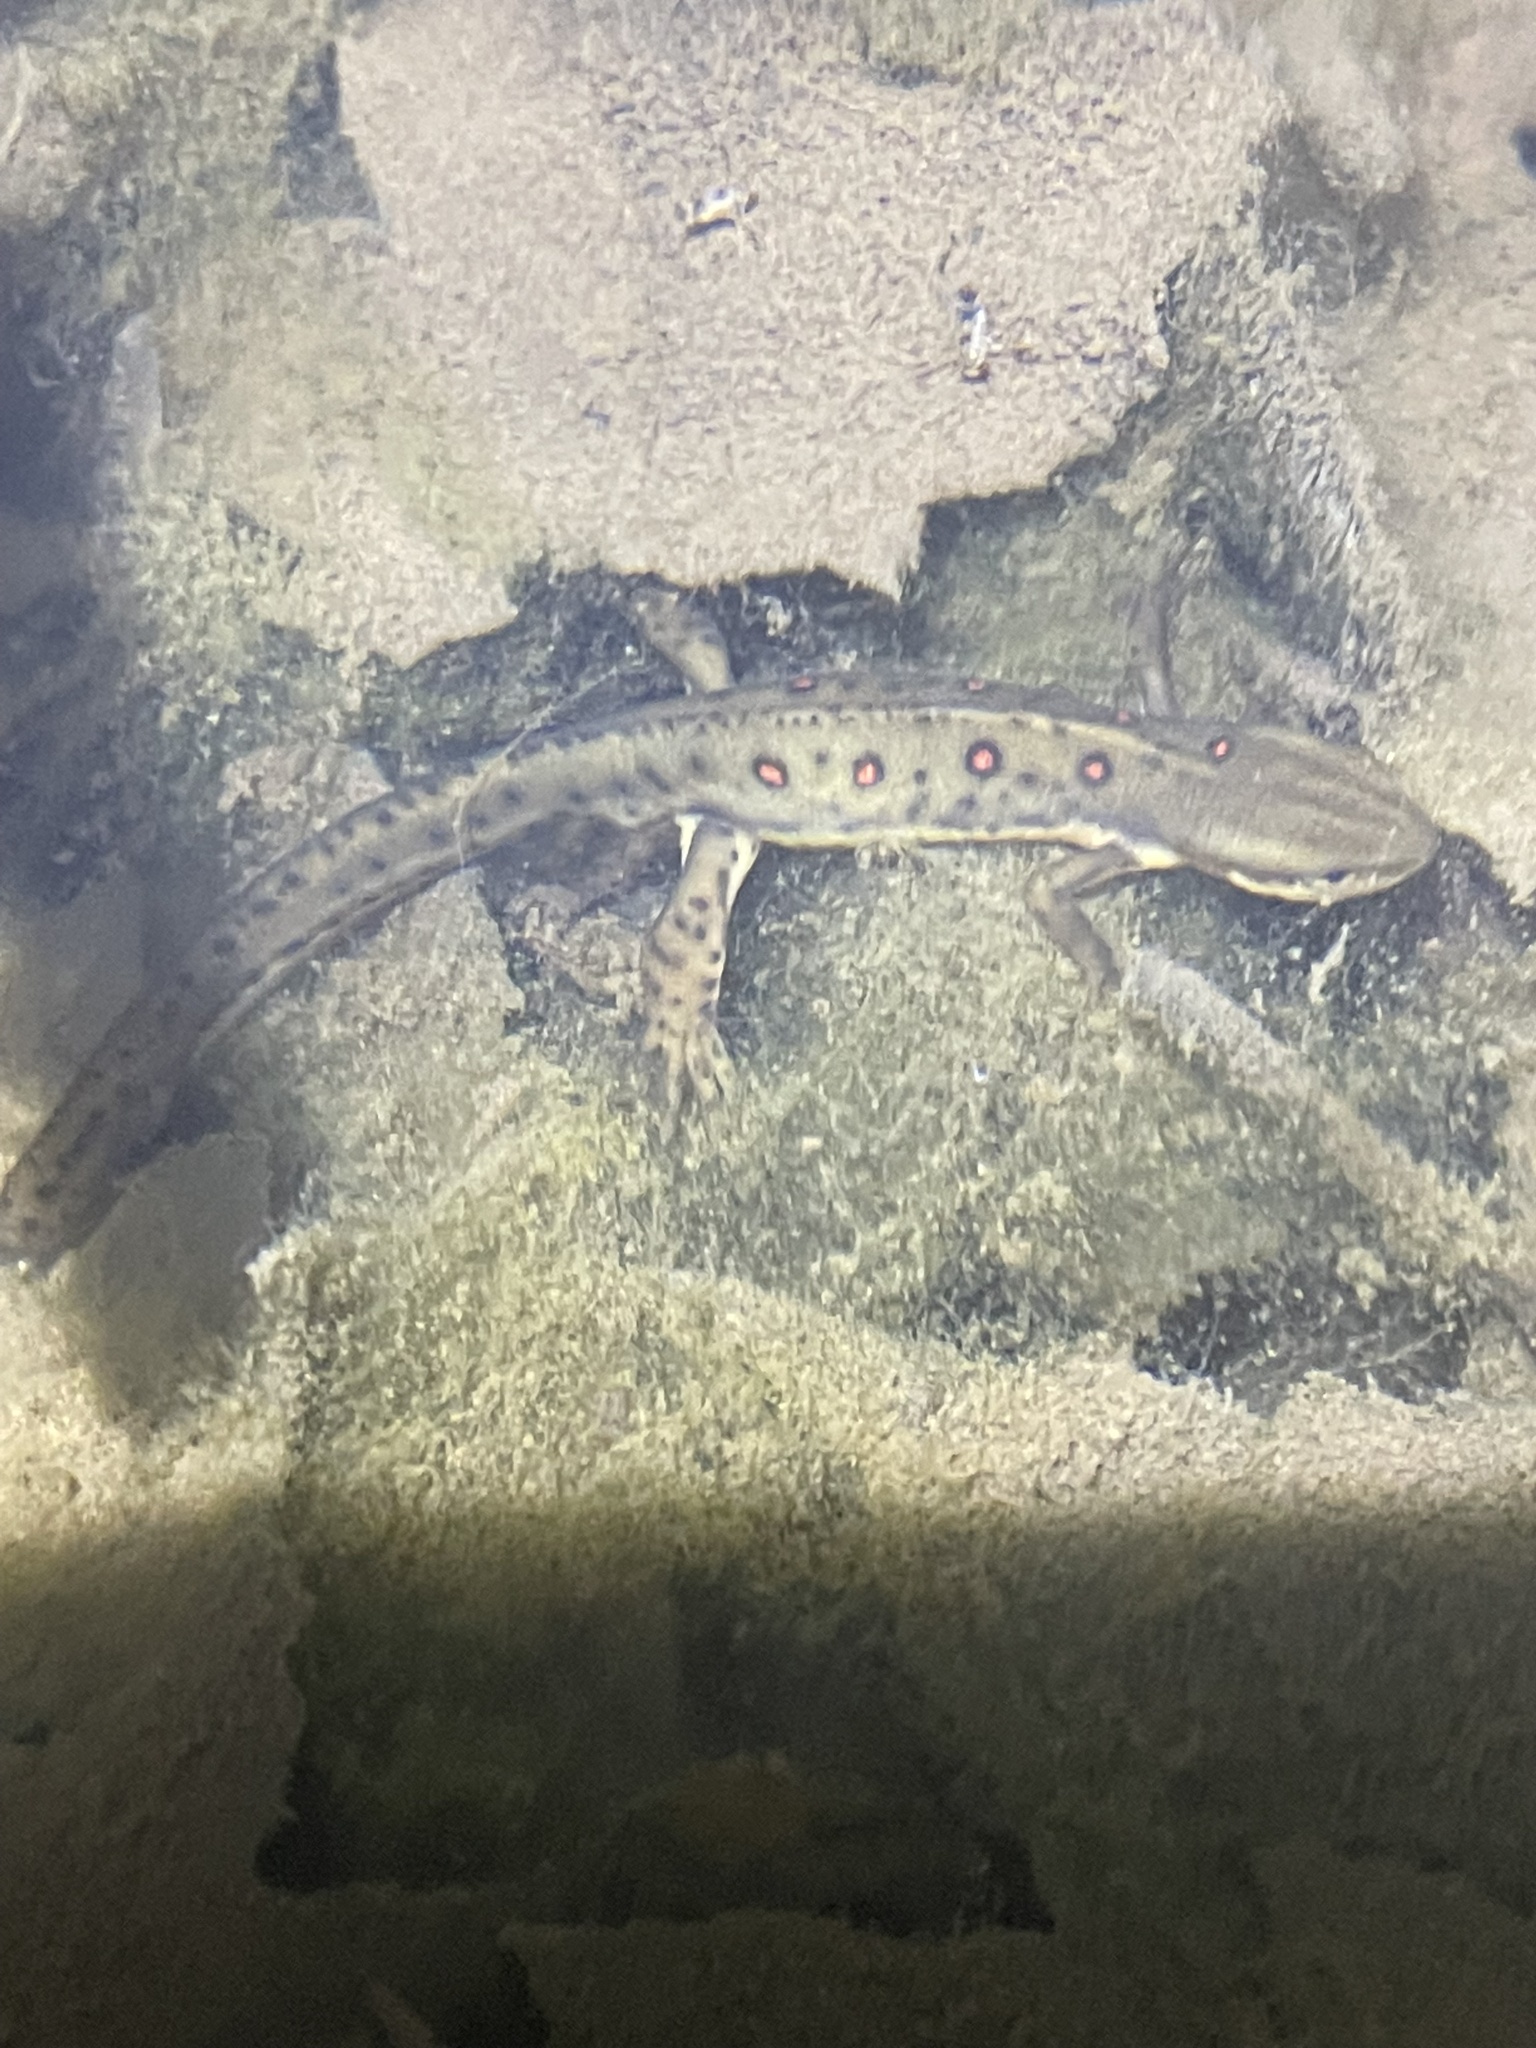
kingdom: Animalia
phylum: Chordata
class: Amphibia
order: Caudata
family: Salamandridae
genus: Notophthalmus
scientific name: Notophthalmus viridescens
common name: Eastern newt
